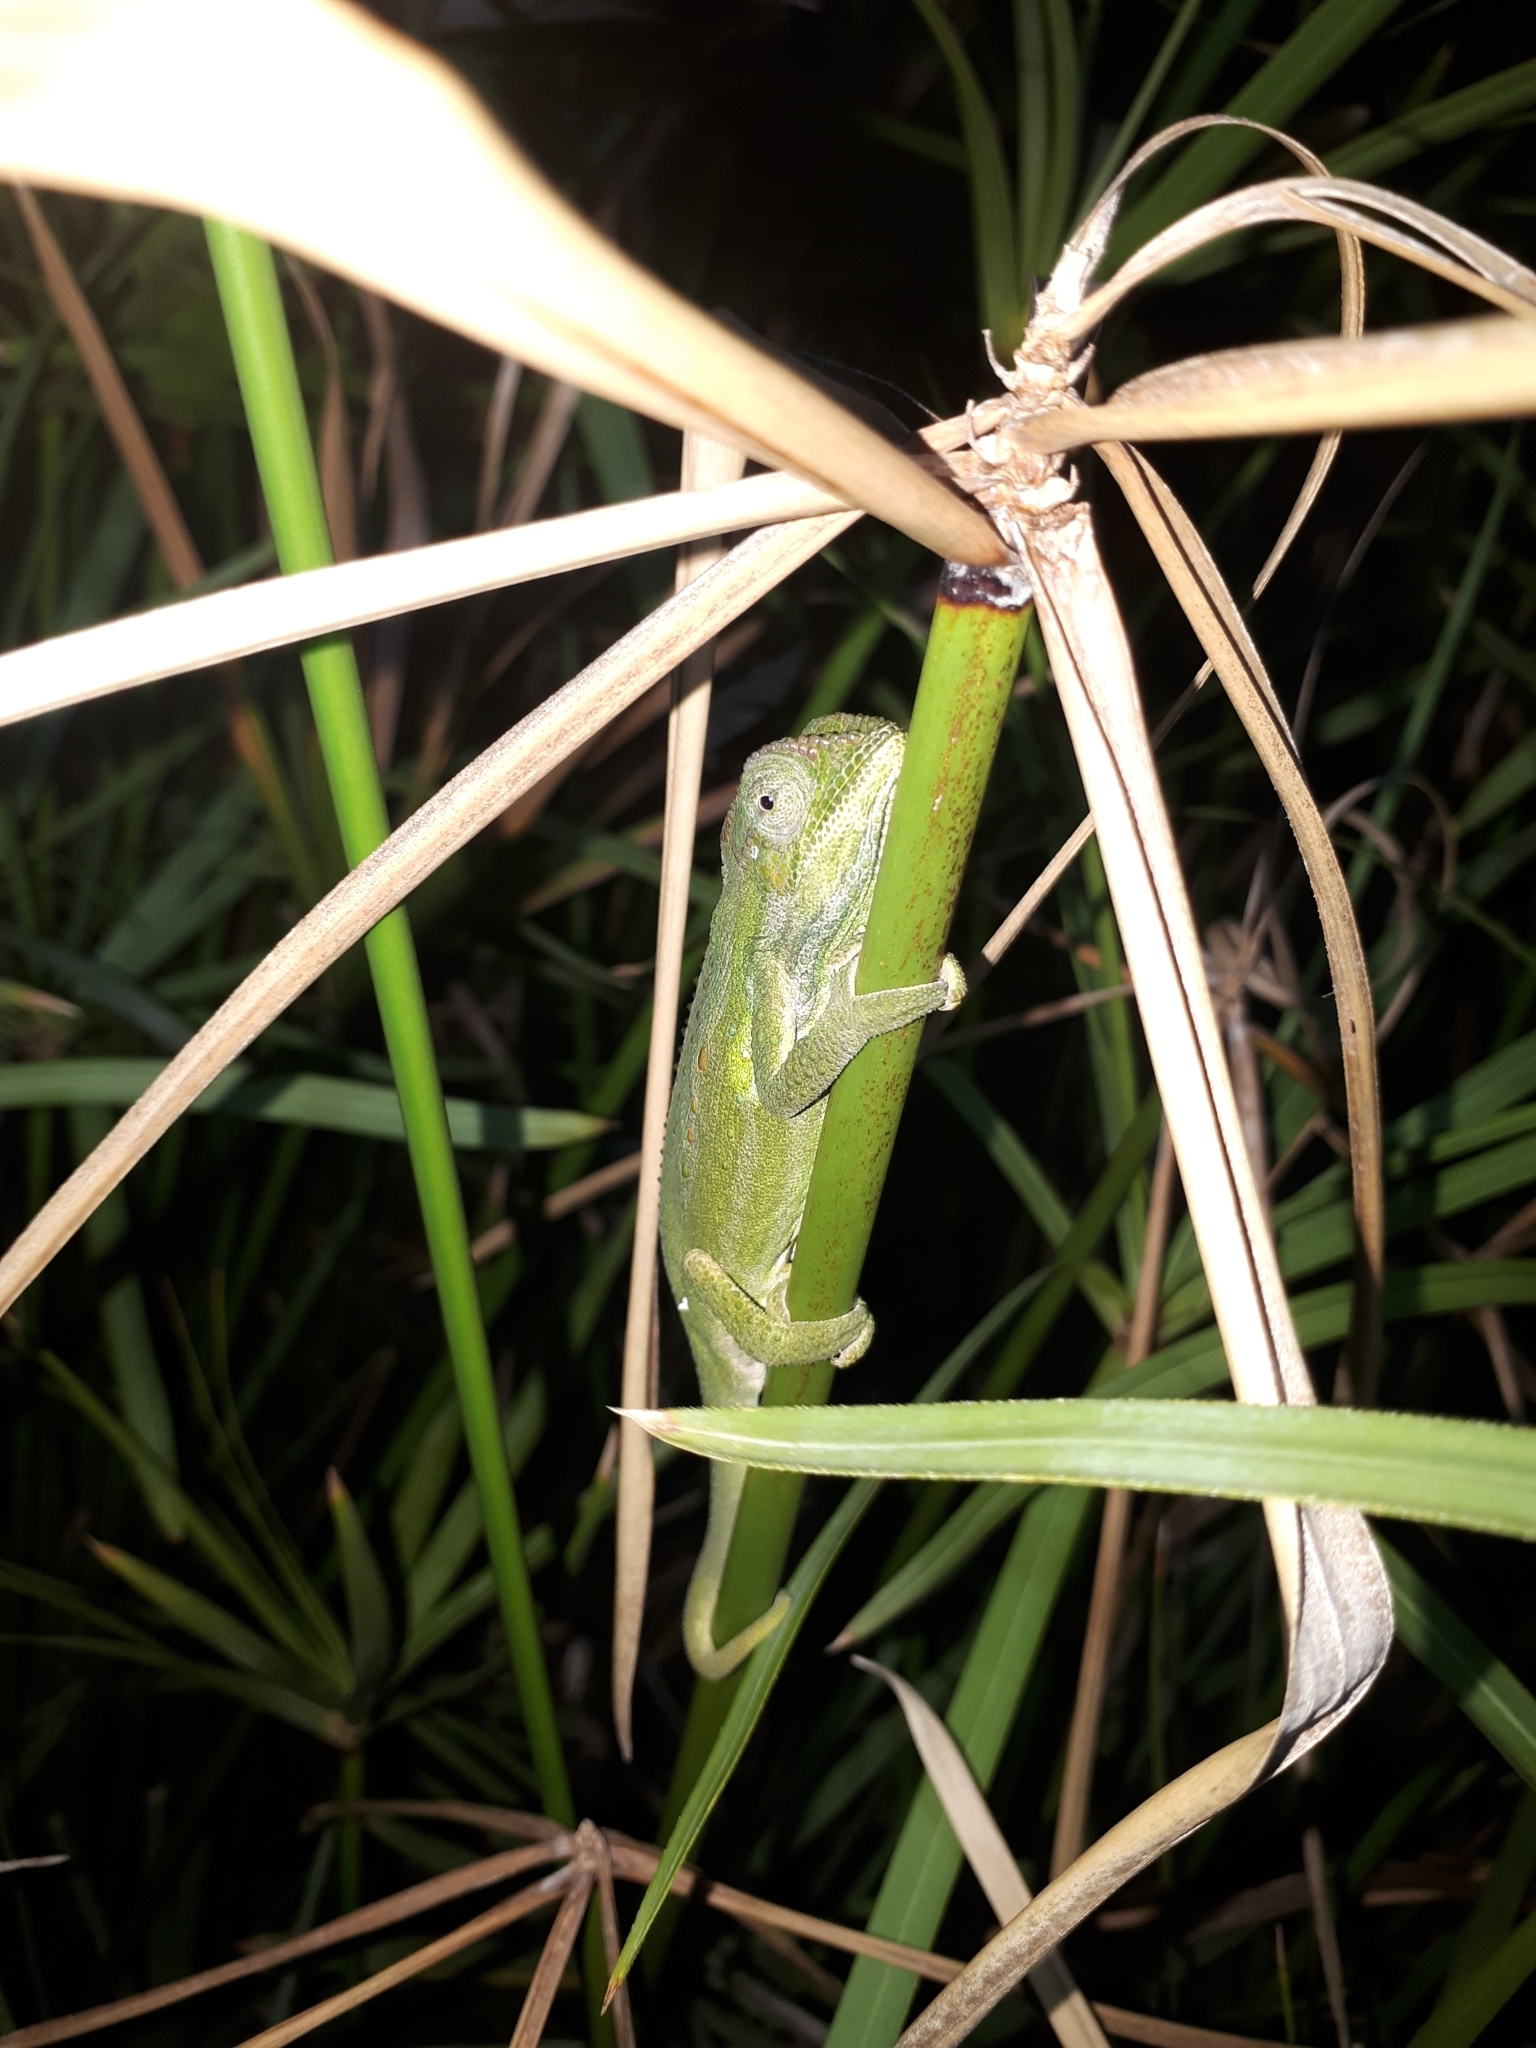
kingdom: Animalia
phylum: Chordata
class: Squamata
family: Chamaeleonidae
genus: Bradypodion
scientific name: Bradypodion pumilum
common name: Cape dwarf chameleon
